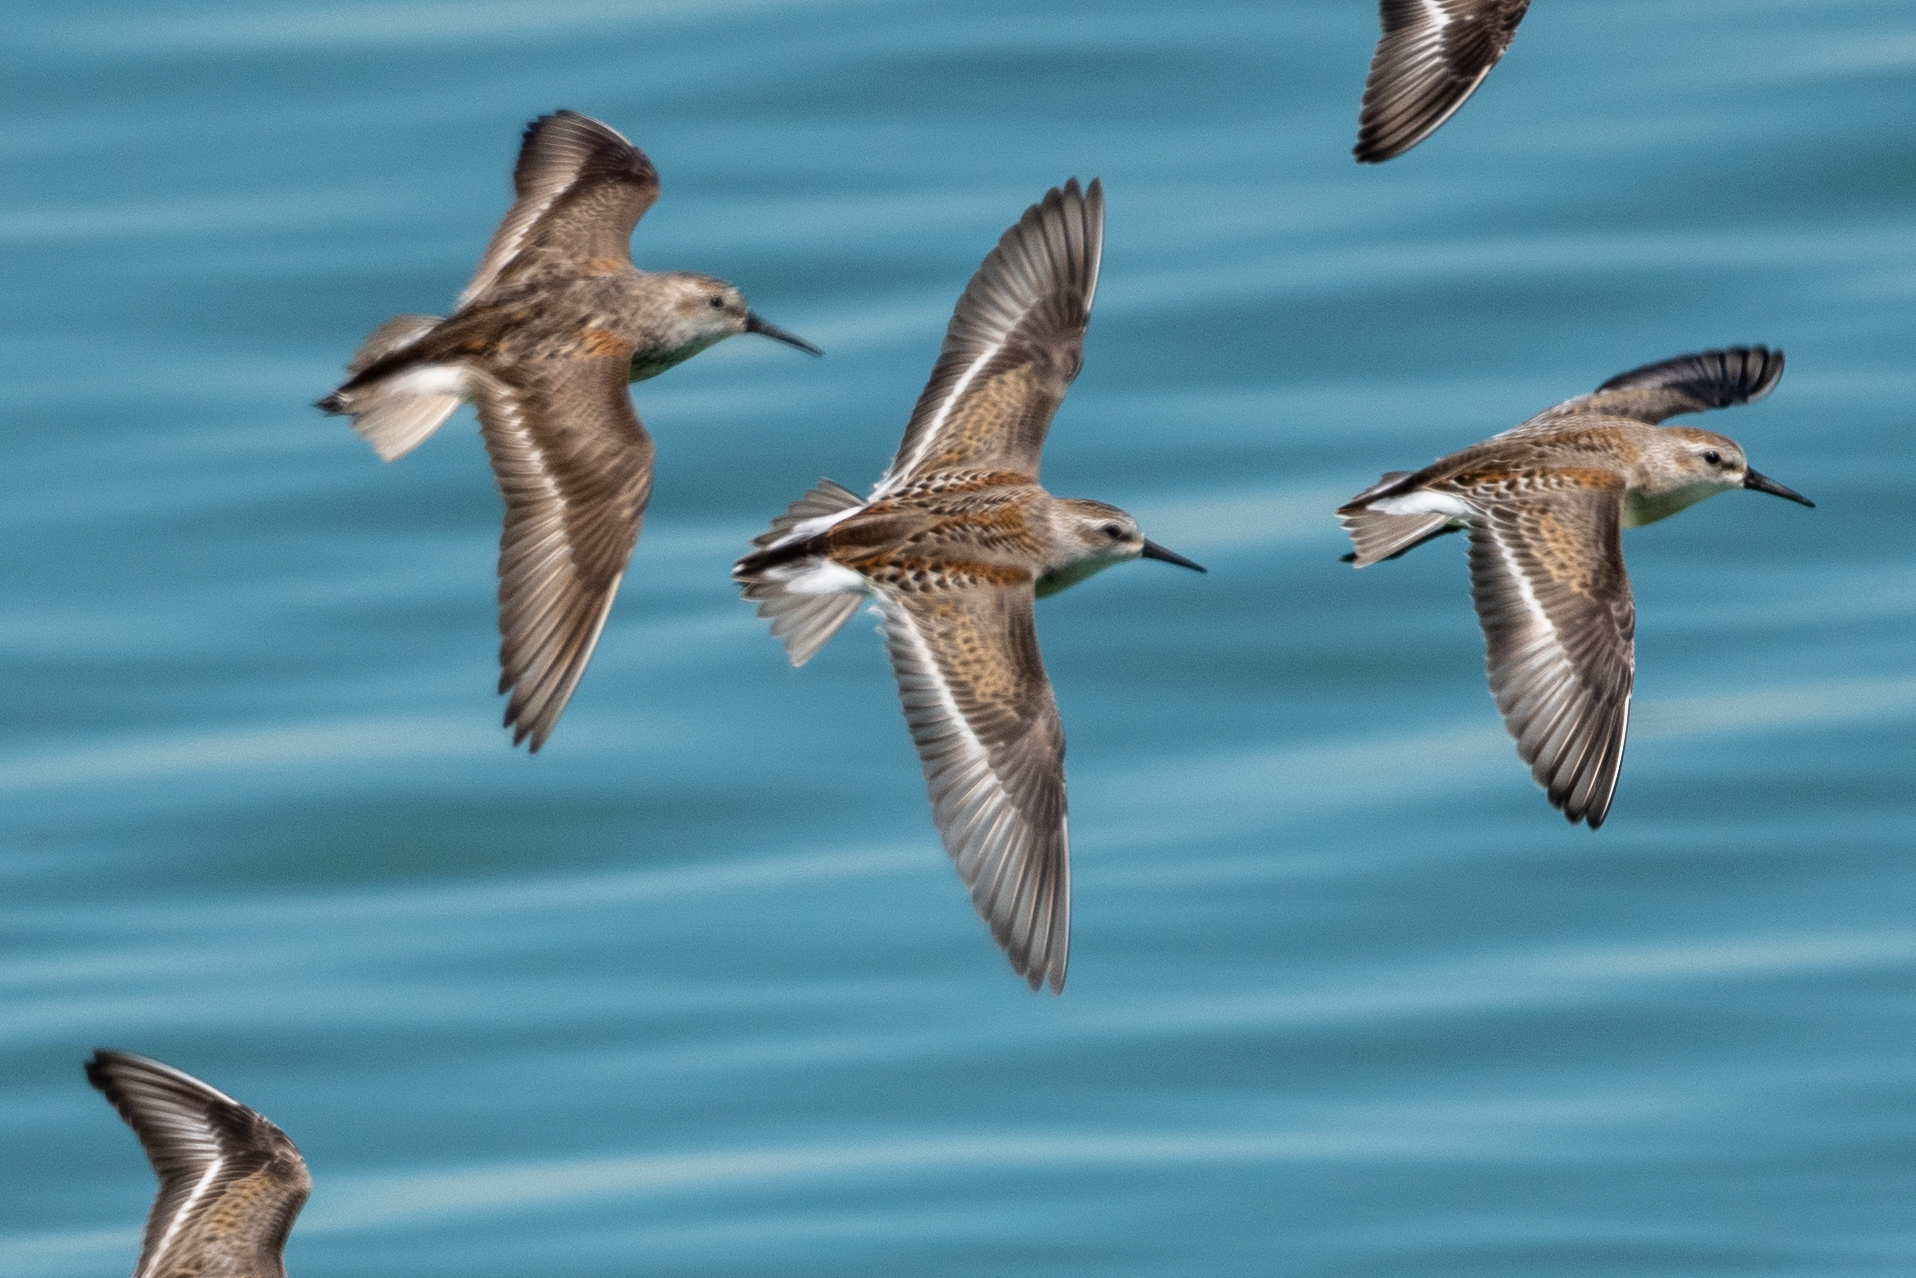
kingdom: Animalia
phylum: Chordata
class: Aves
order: Charadriiformes
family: Scolopacidae
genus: Calidris
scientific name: Calidris mauri
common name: Western sandpiper
